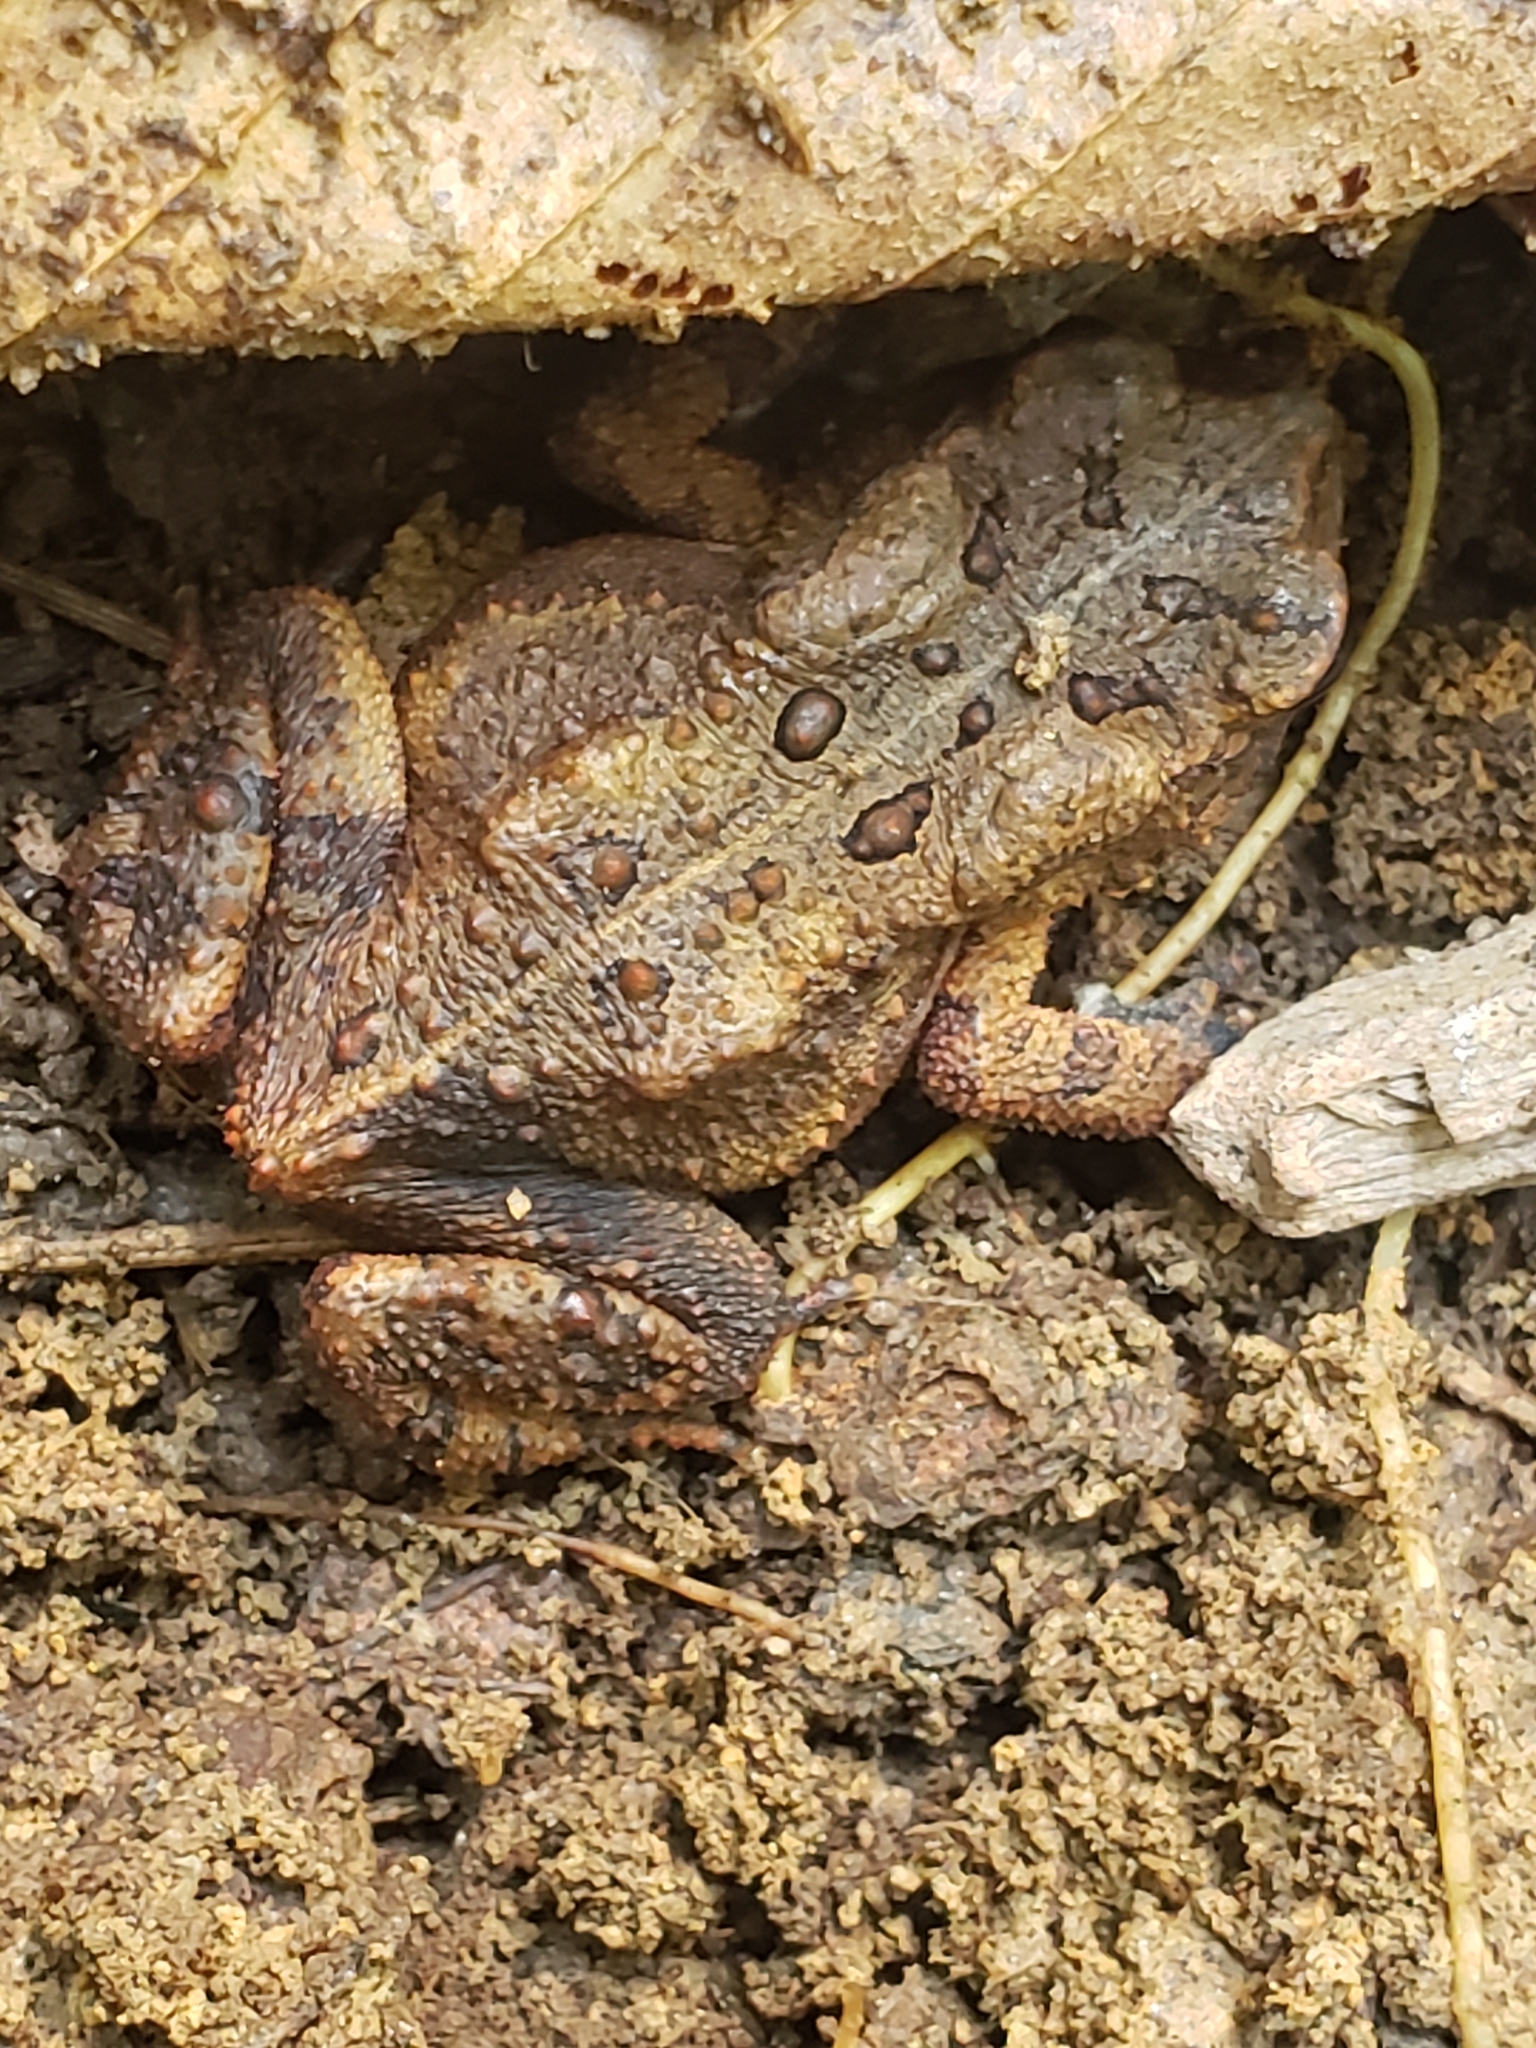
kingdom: Animalia
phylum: Chordata
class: Amphibia
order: Anura
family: Bufonidae
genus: Anaxyrus
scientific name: Anaxyrus americanus
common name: American toad
